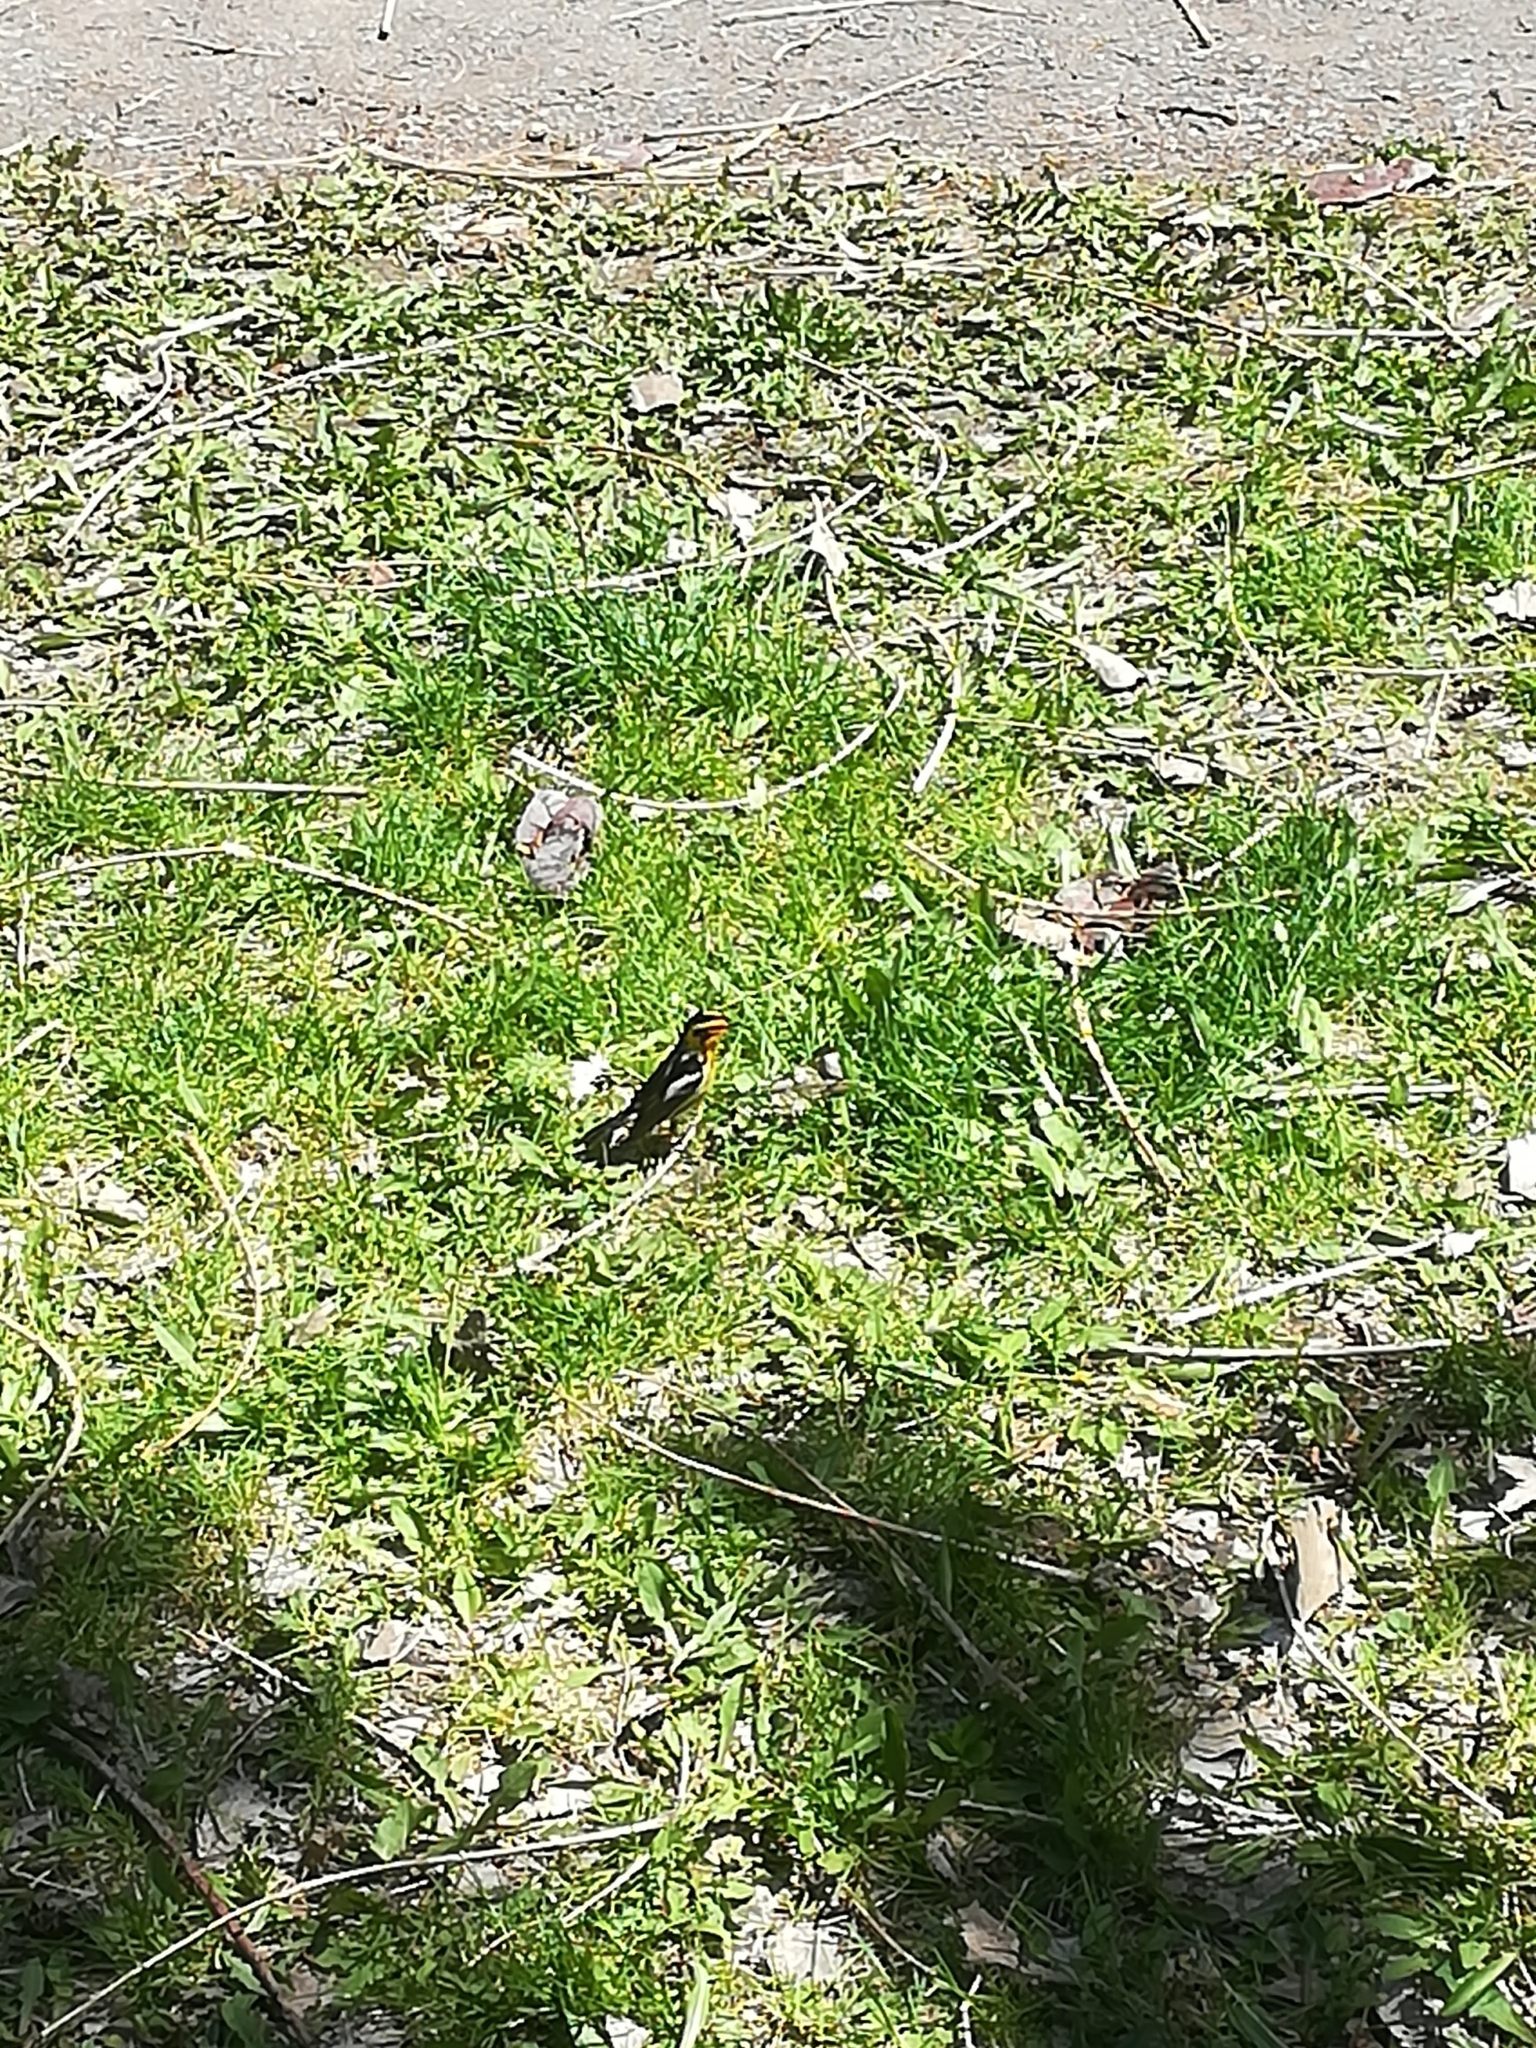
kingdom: Animalia
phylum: Chordata
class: Aves
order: Passeriformes
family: Parulidae
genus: Setophaga
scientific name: Setophaga fusca
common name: Blackburnian warbler
